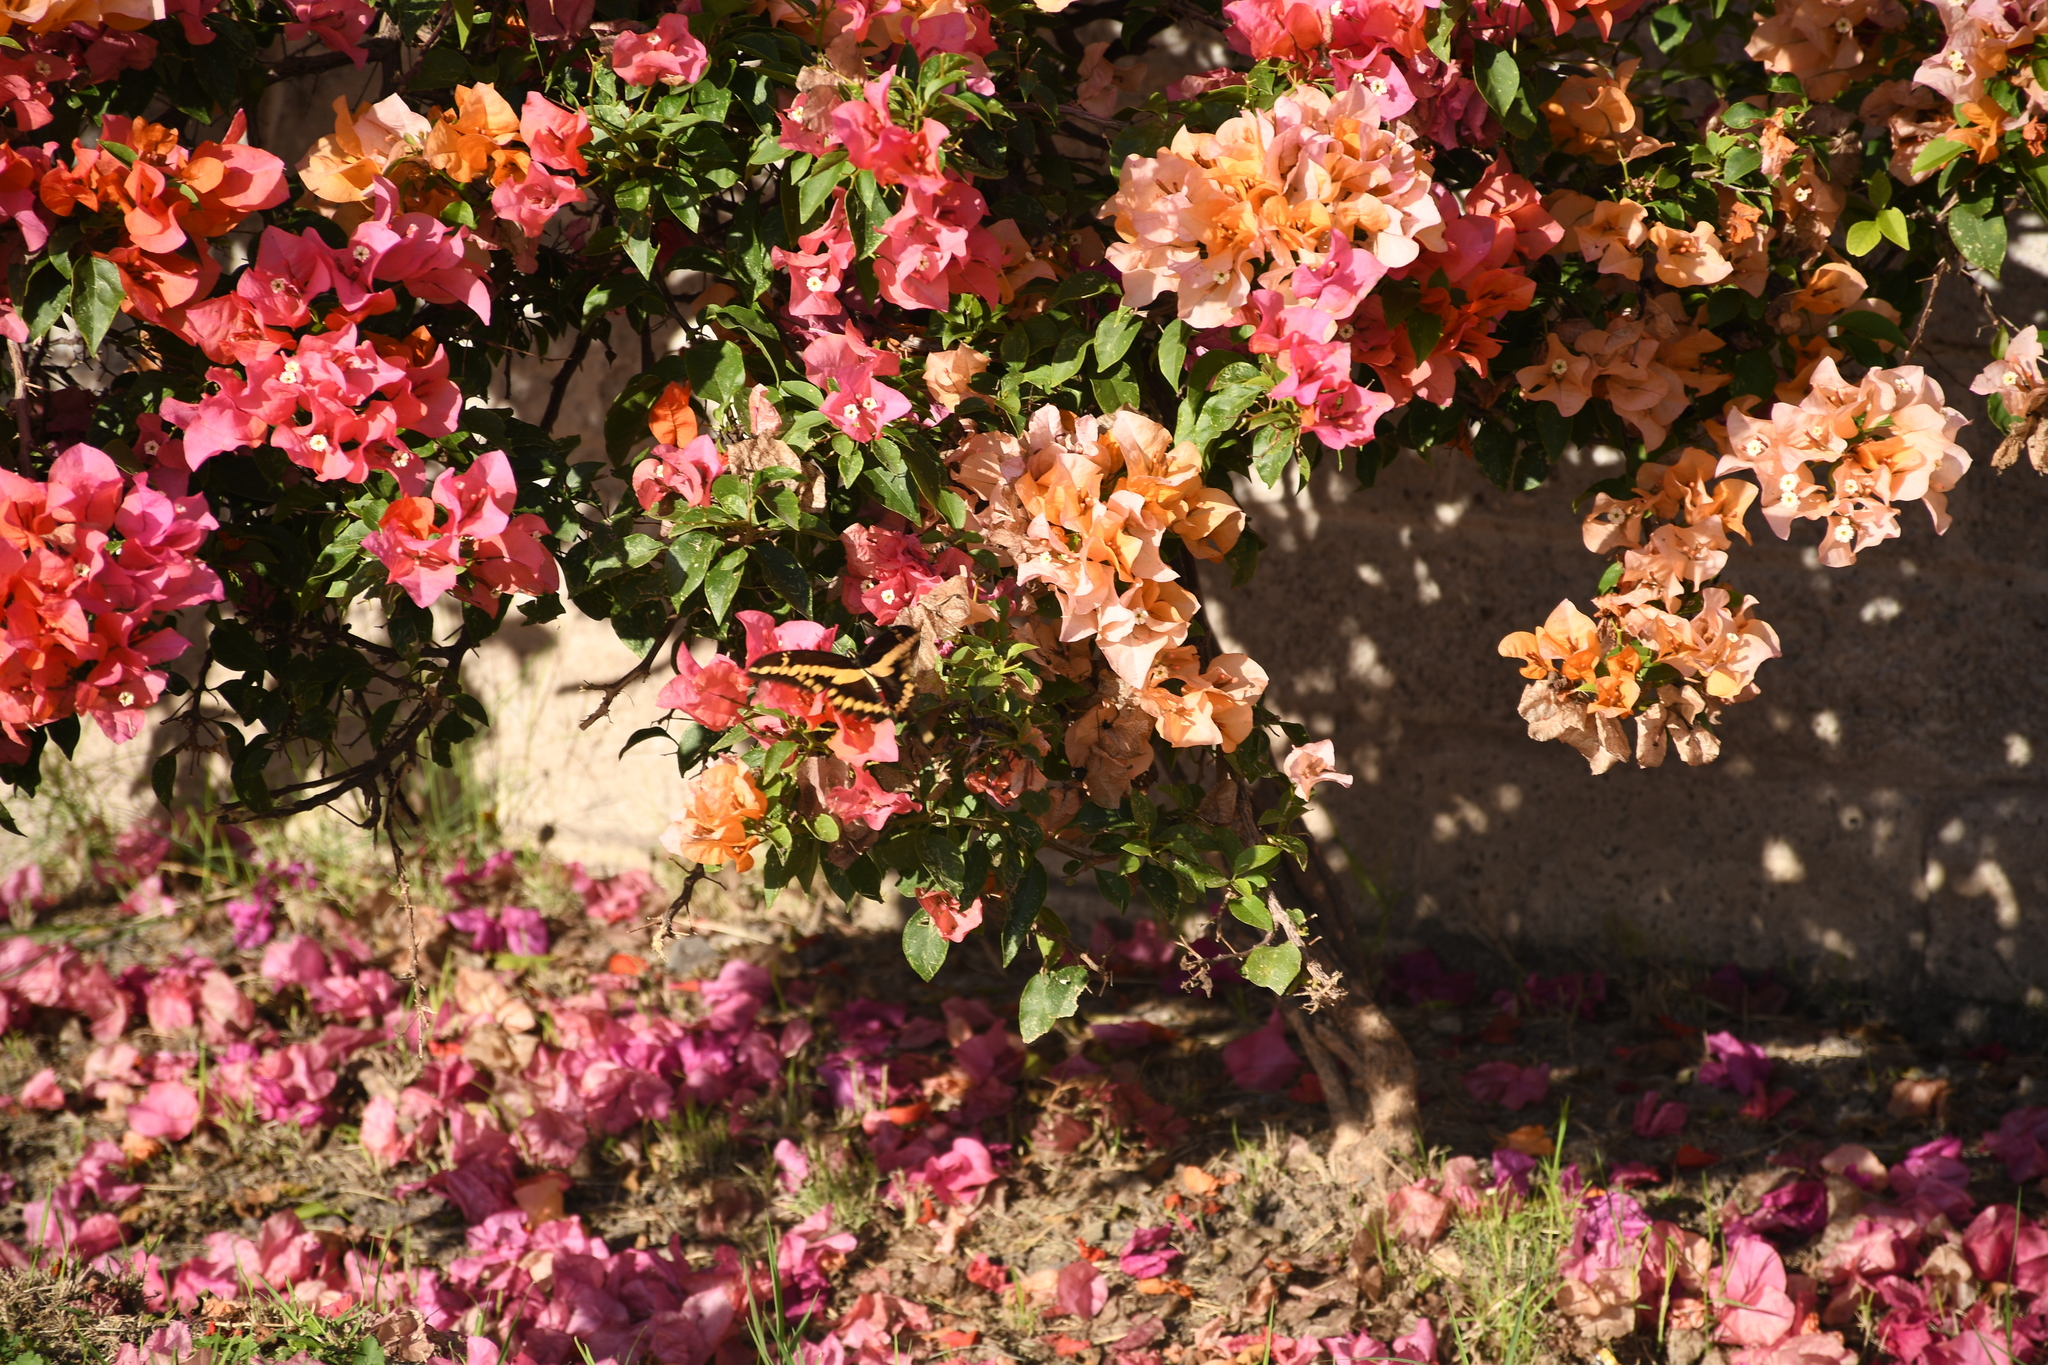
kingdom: Animalia
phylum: Arthropoda
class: Insecta
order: Lepidoptera
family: Papilionidae
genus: Papilio
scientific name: Papilio rumiko
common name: Western giant swallowtail
